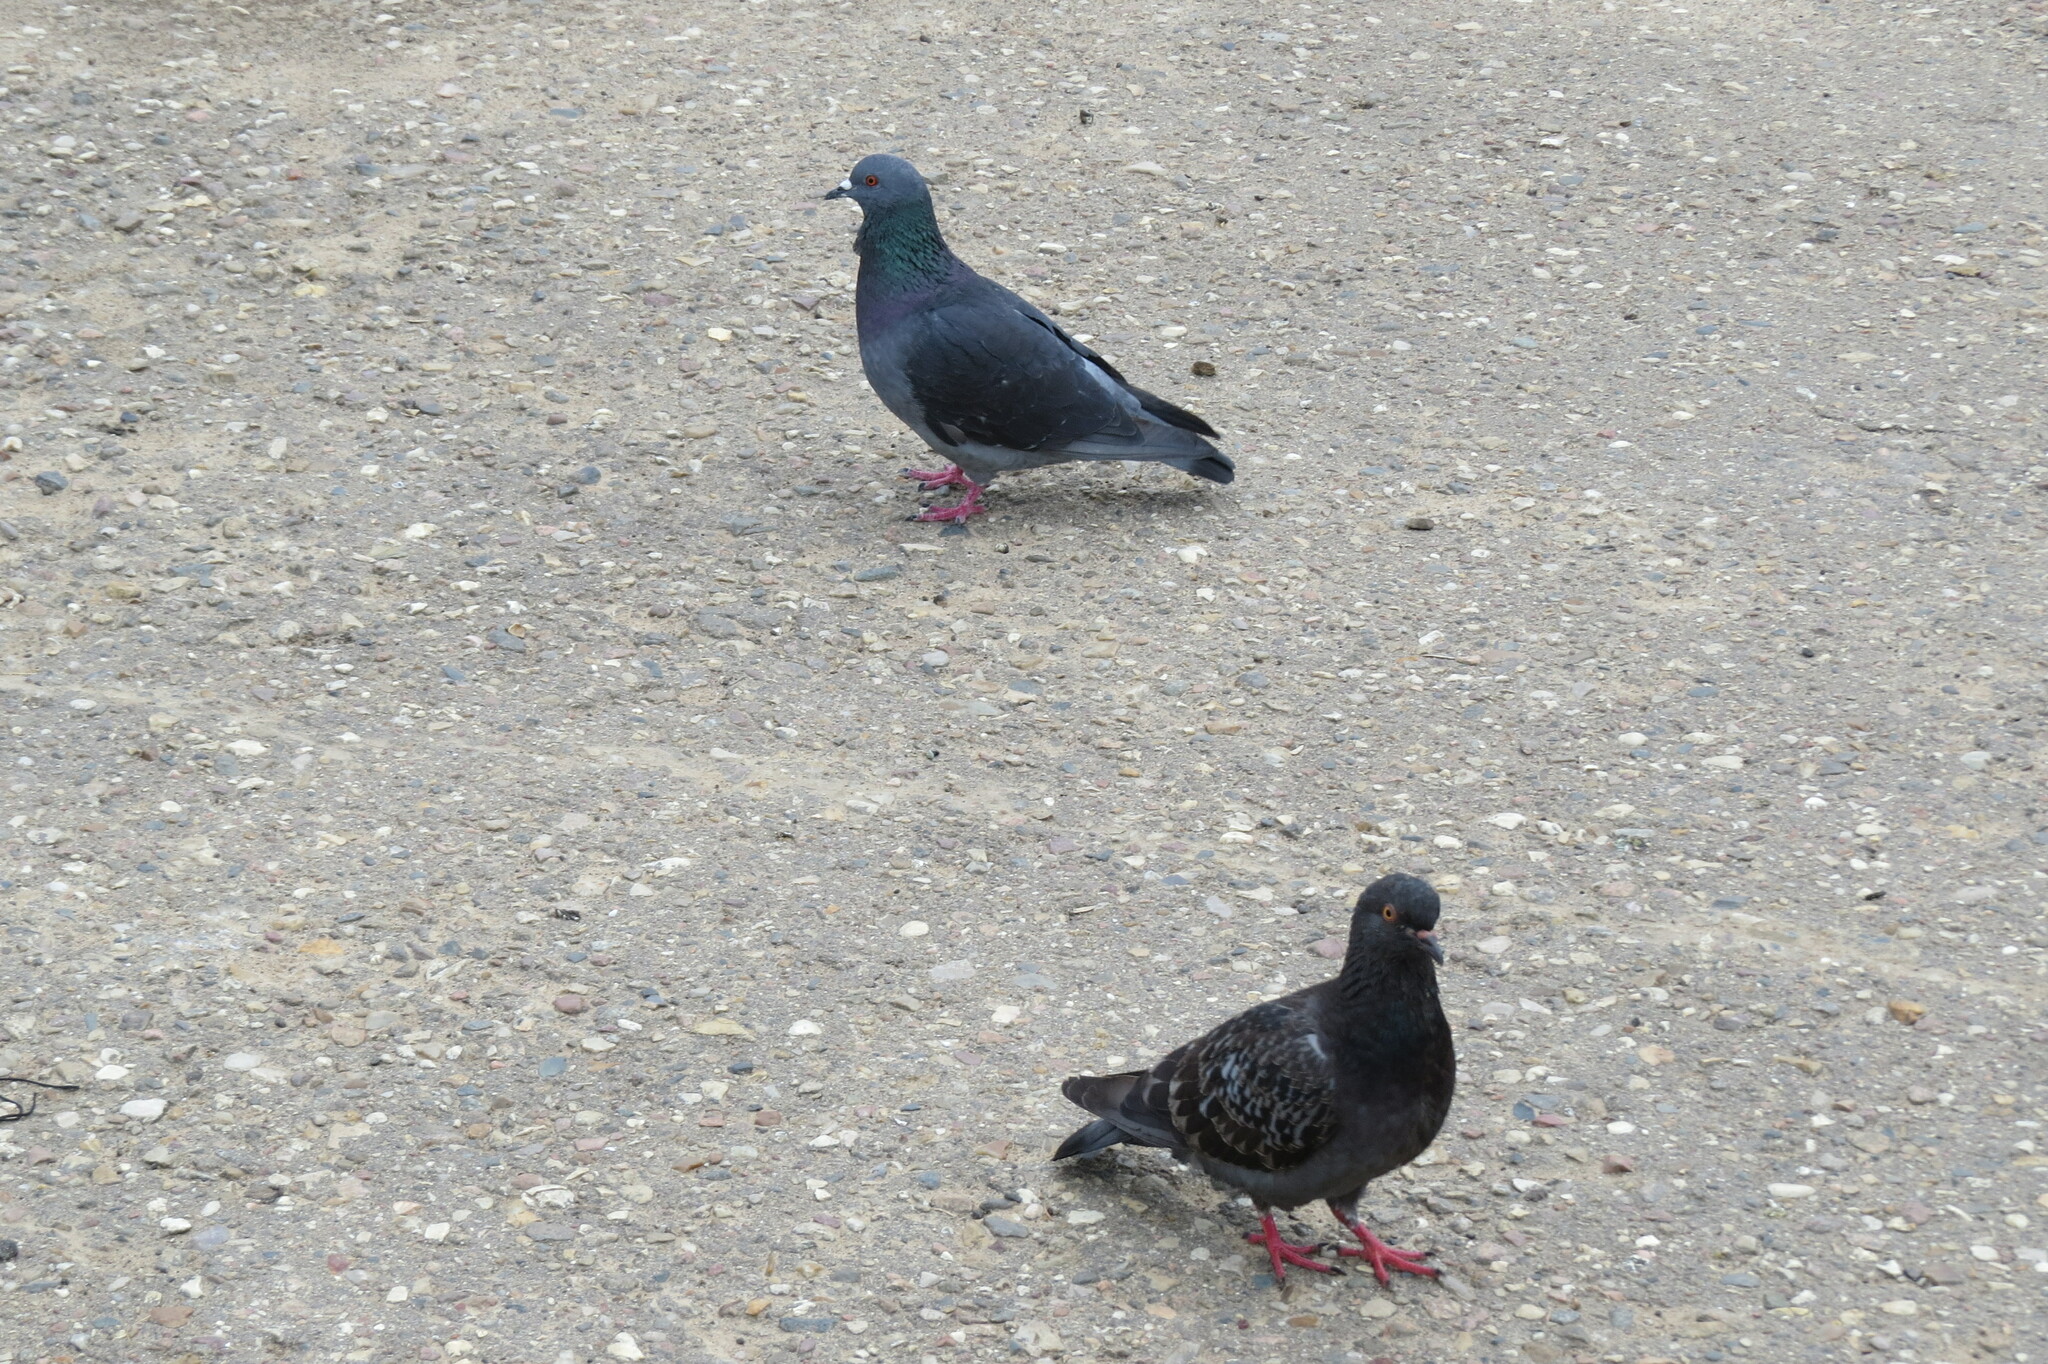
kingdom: Animalia
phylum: Chordata
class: Aves
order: Columbiformes
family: Columbidae
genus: Columba
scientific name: Columba livia
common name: Rock pigeon
